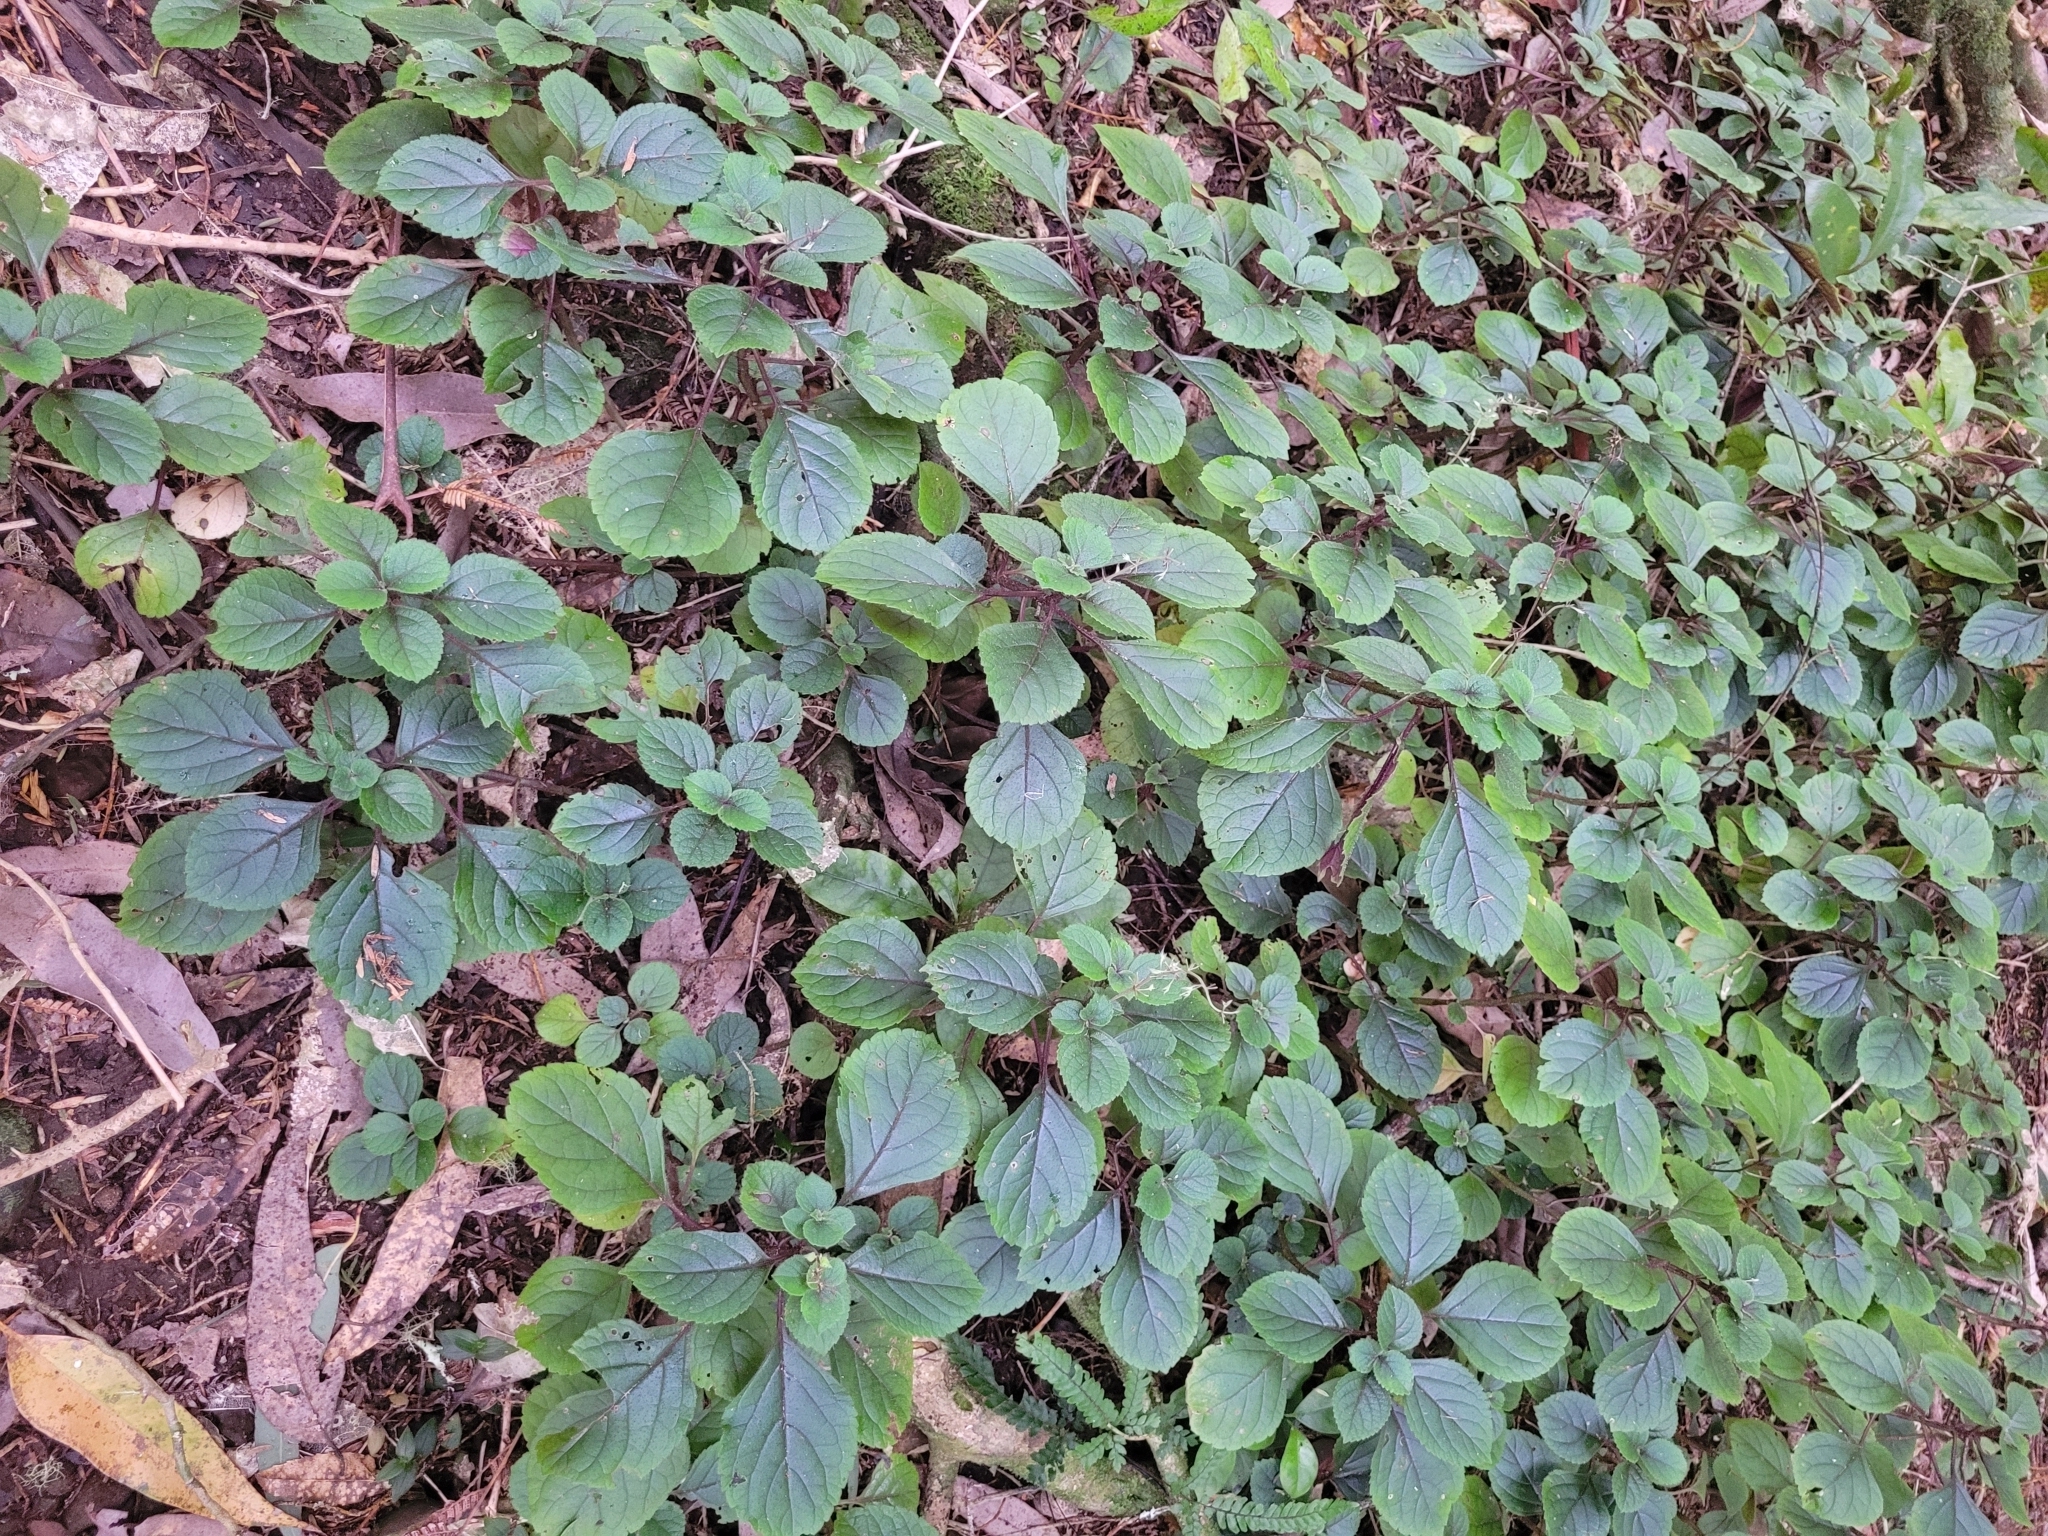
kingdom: Plantae
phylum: Tracheophyta
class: Magnoliopsida
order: Lamiales
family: Lamiaceae
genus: Plectranthus
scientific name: Plectranthus ciliatus
